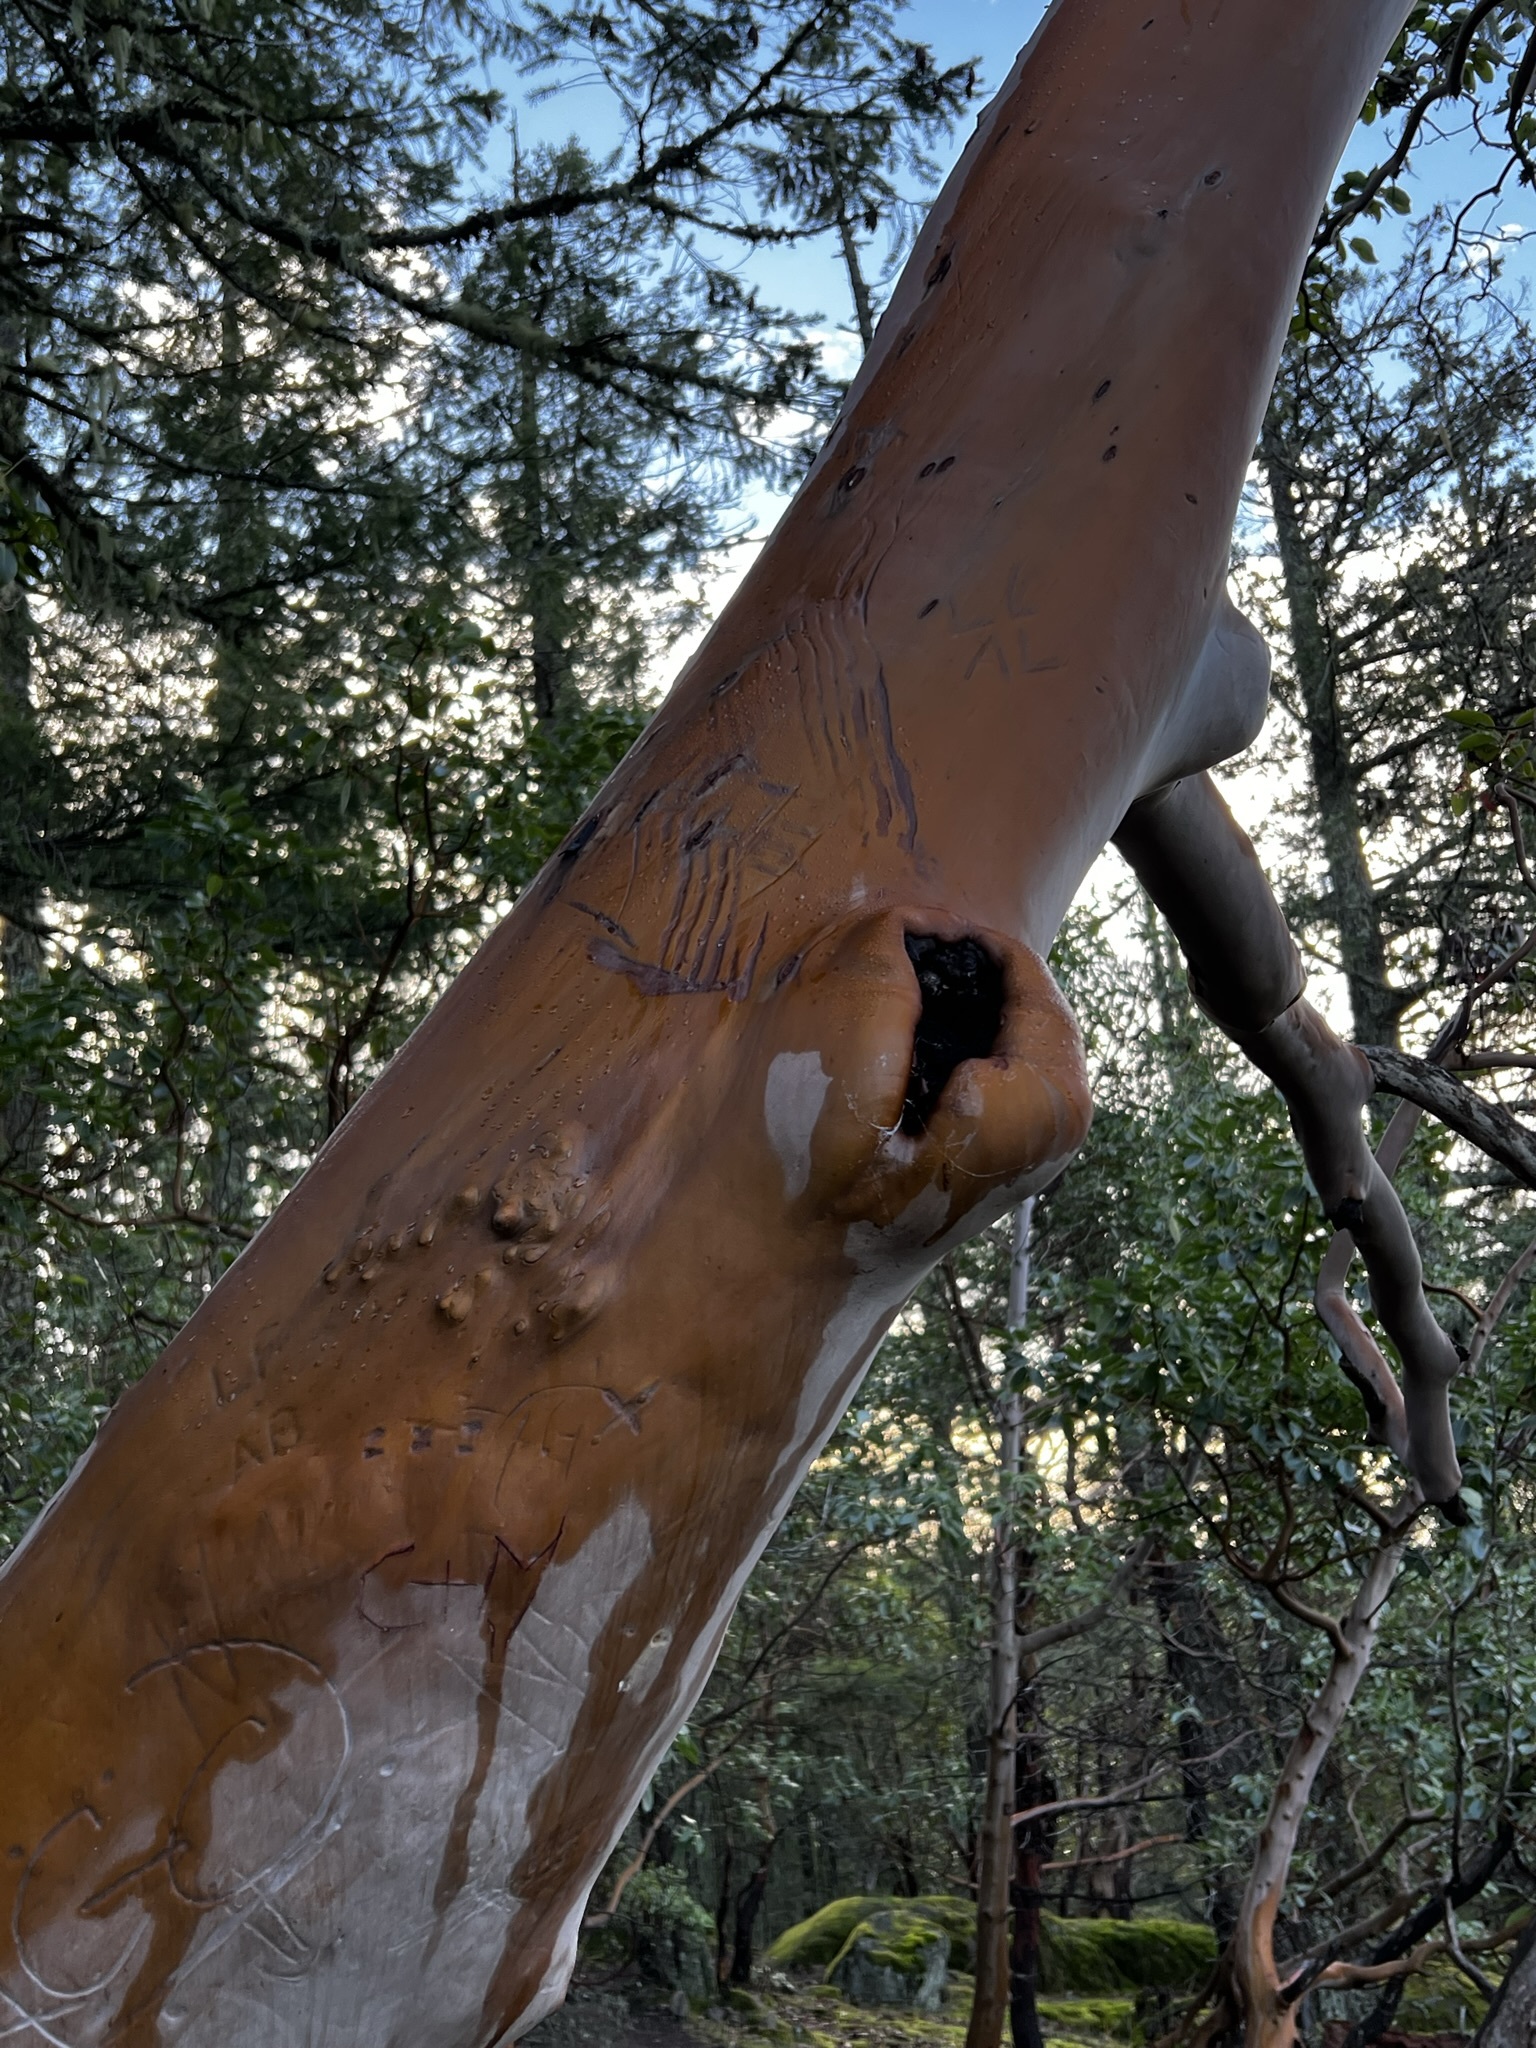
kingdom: Animalia
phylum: Chordata
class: Mammalia
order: Carnivora
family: Ursidae
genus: Ursus
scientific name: Ursus americanus
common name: American black bear
